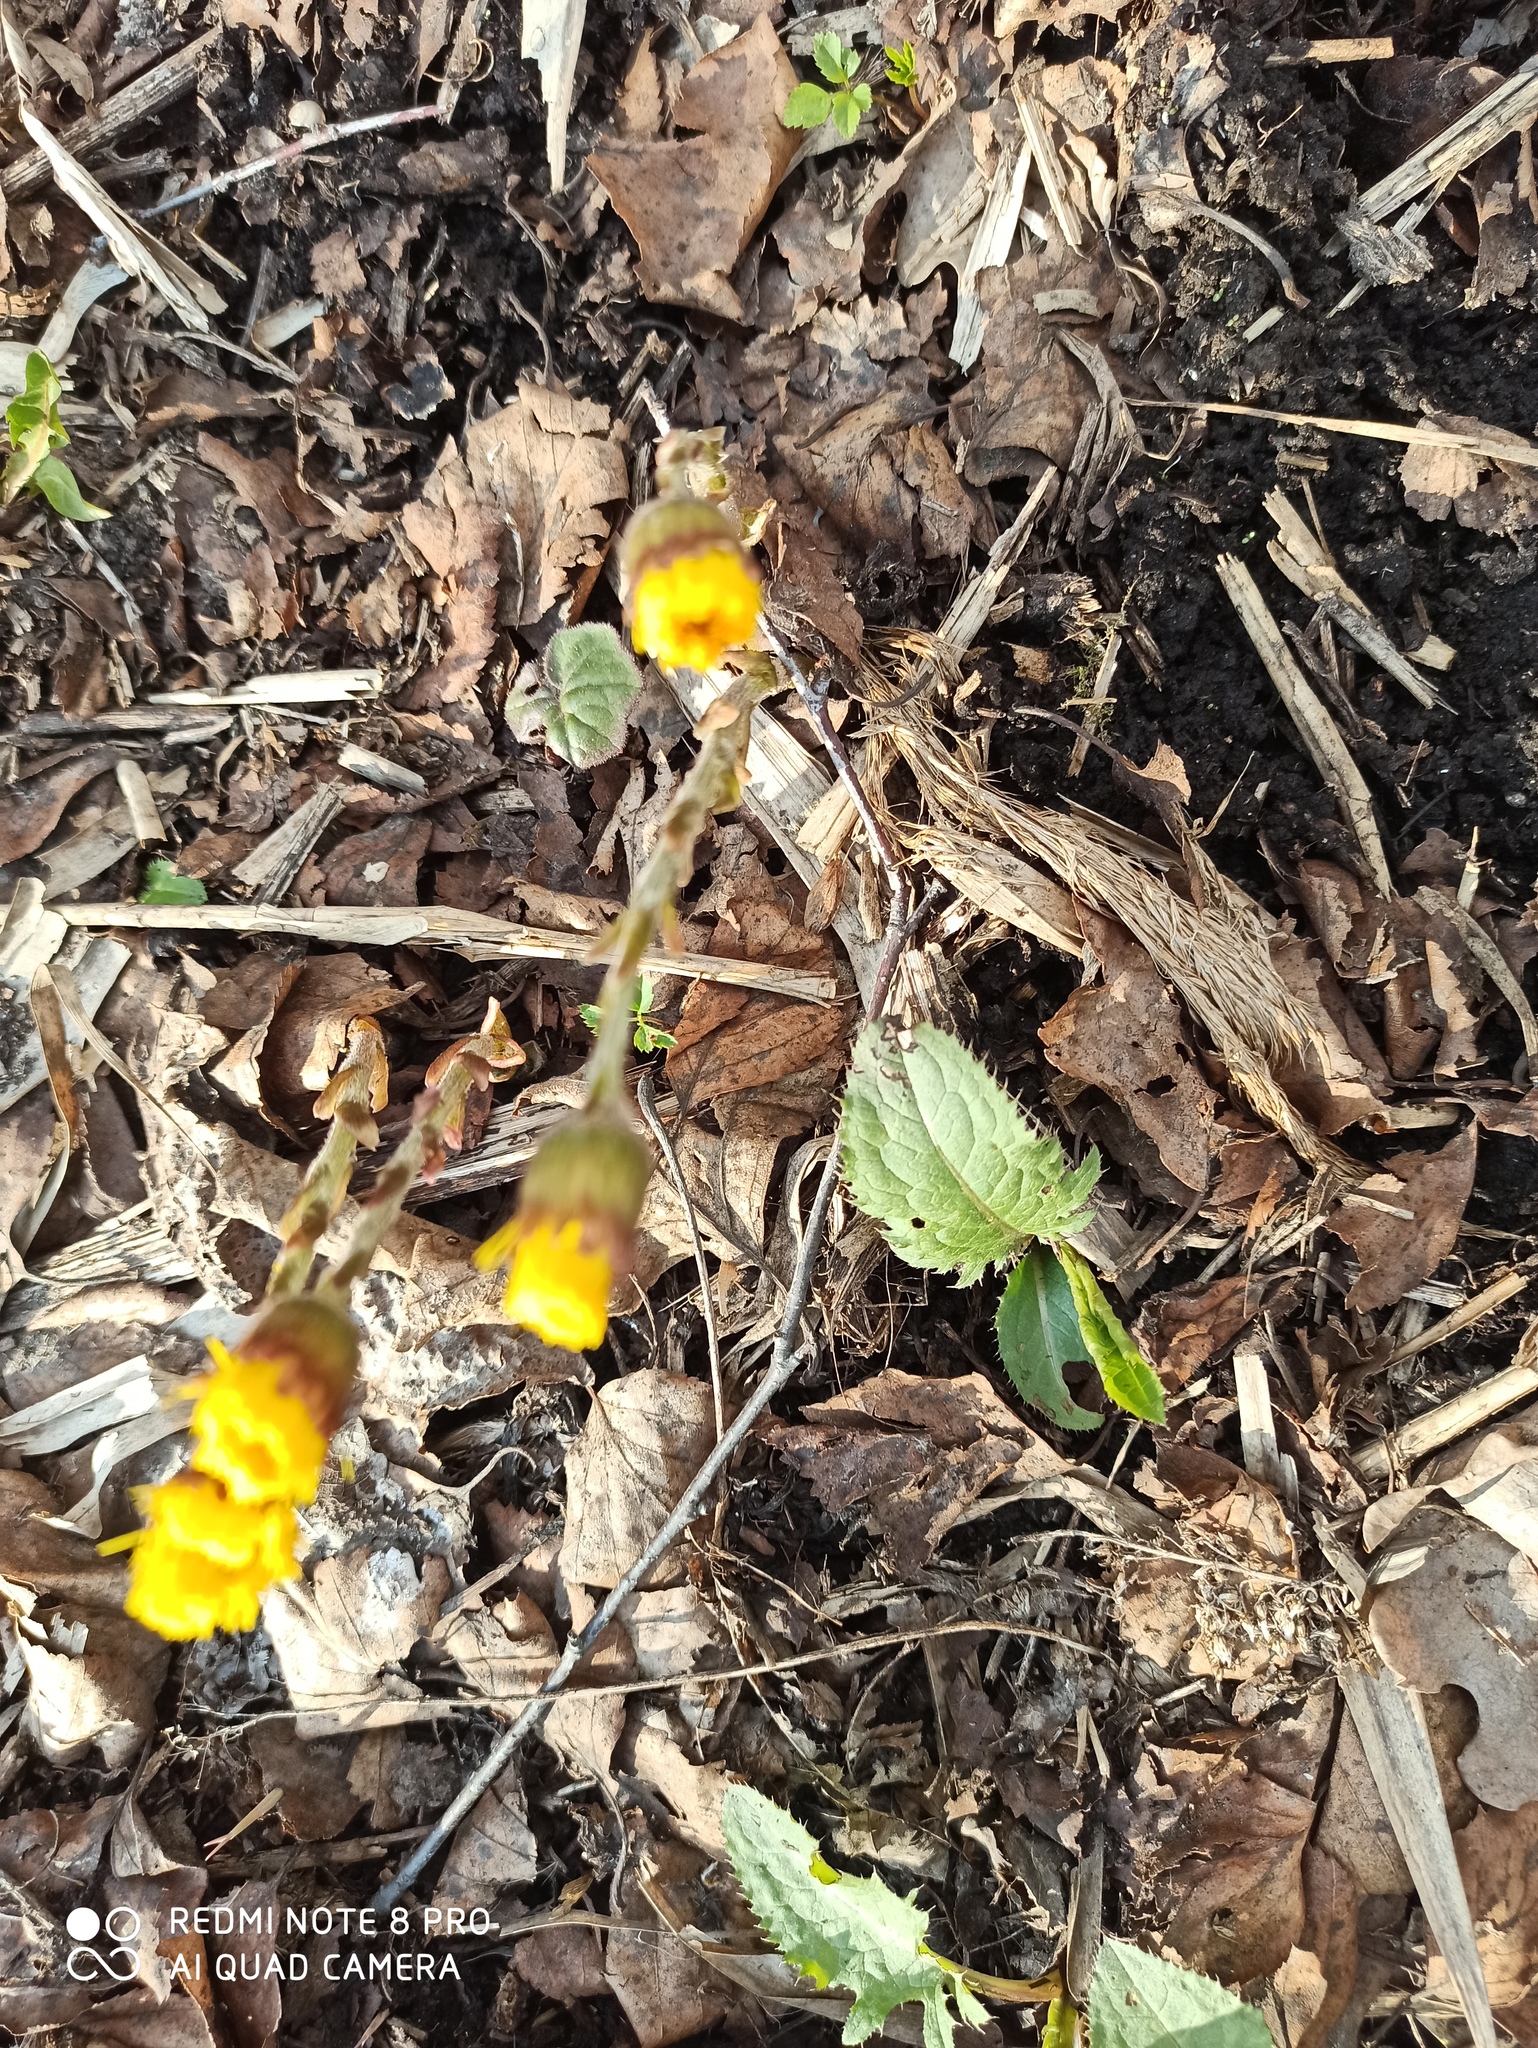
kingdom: Plantae
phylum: Tracheophyta
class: Magnoliopsida
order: Asterales
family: Asteraceae
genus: Tussilago
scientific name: Tussilago farfara
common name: Coltsfoot
